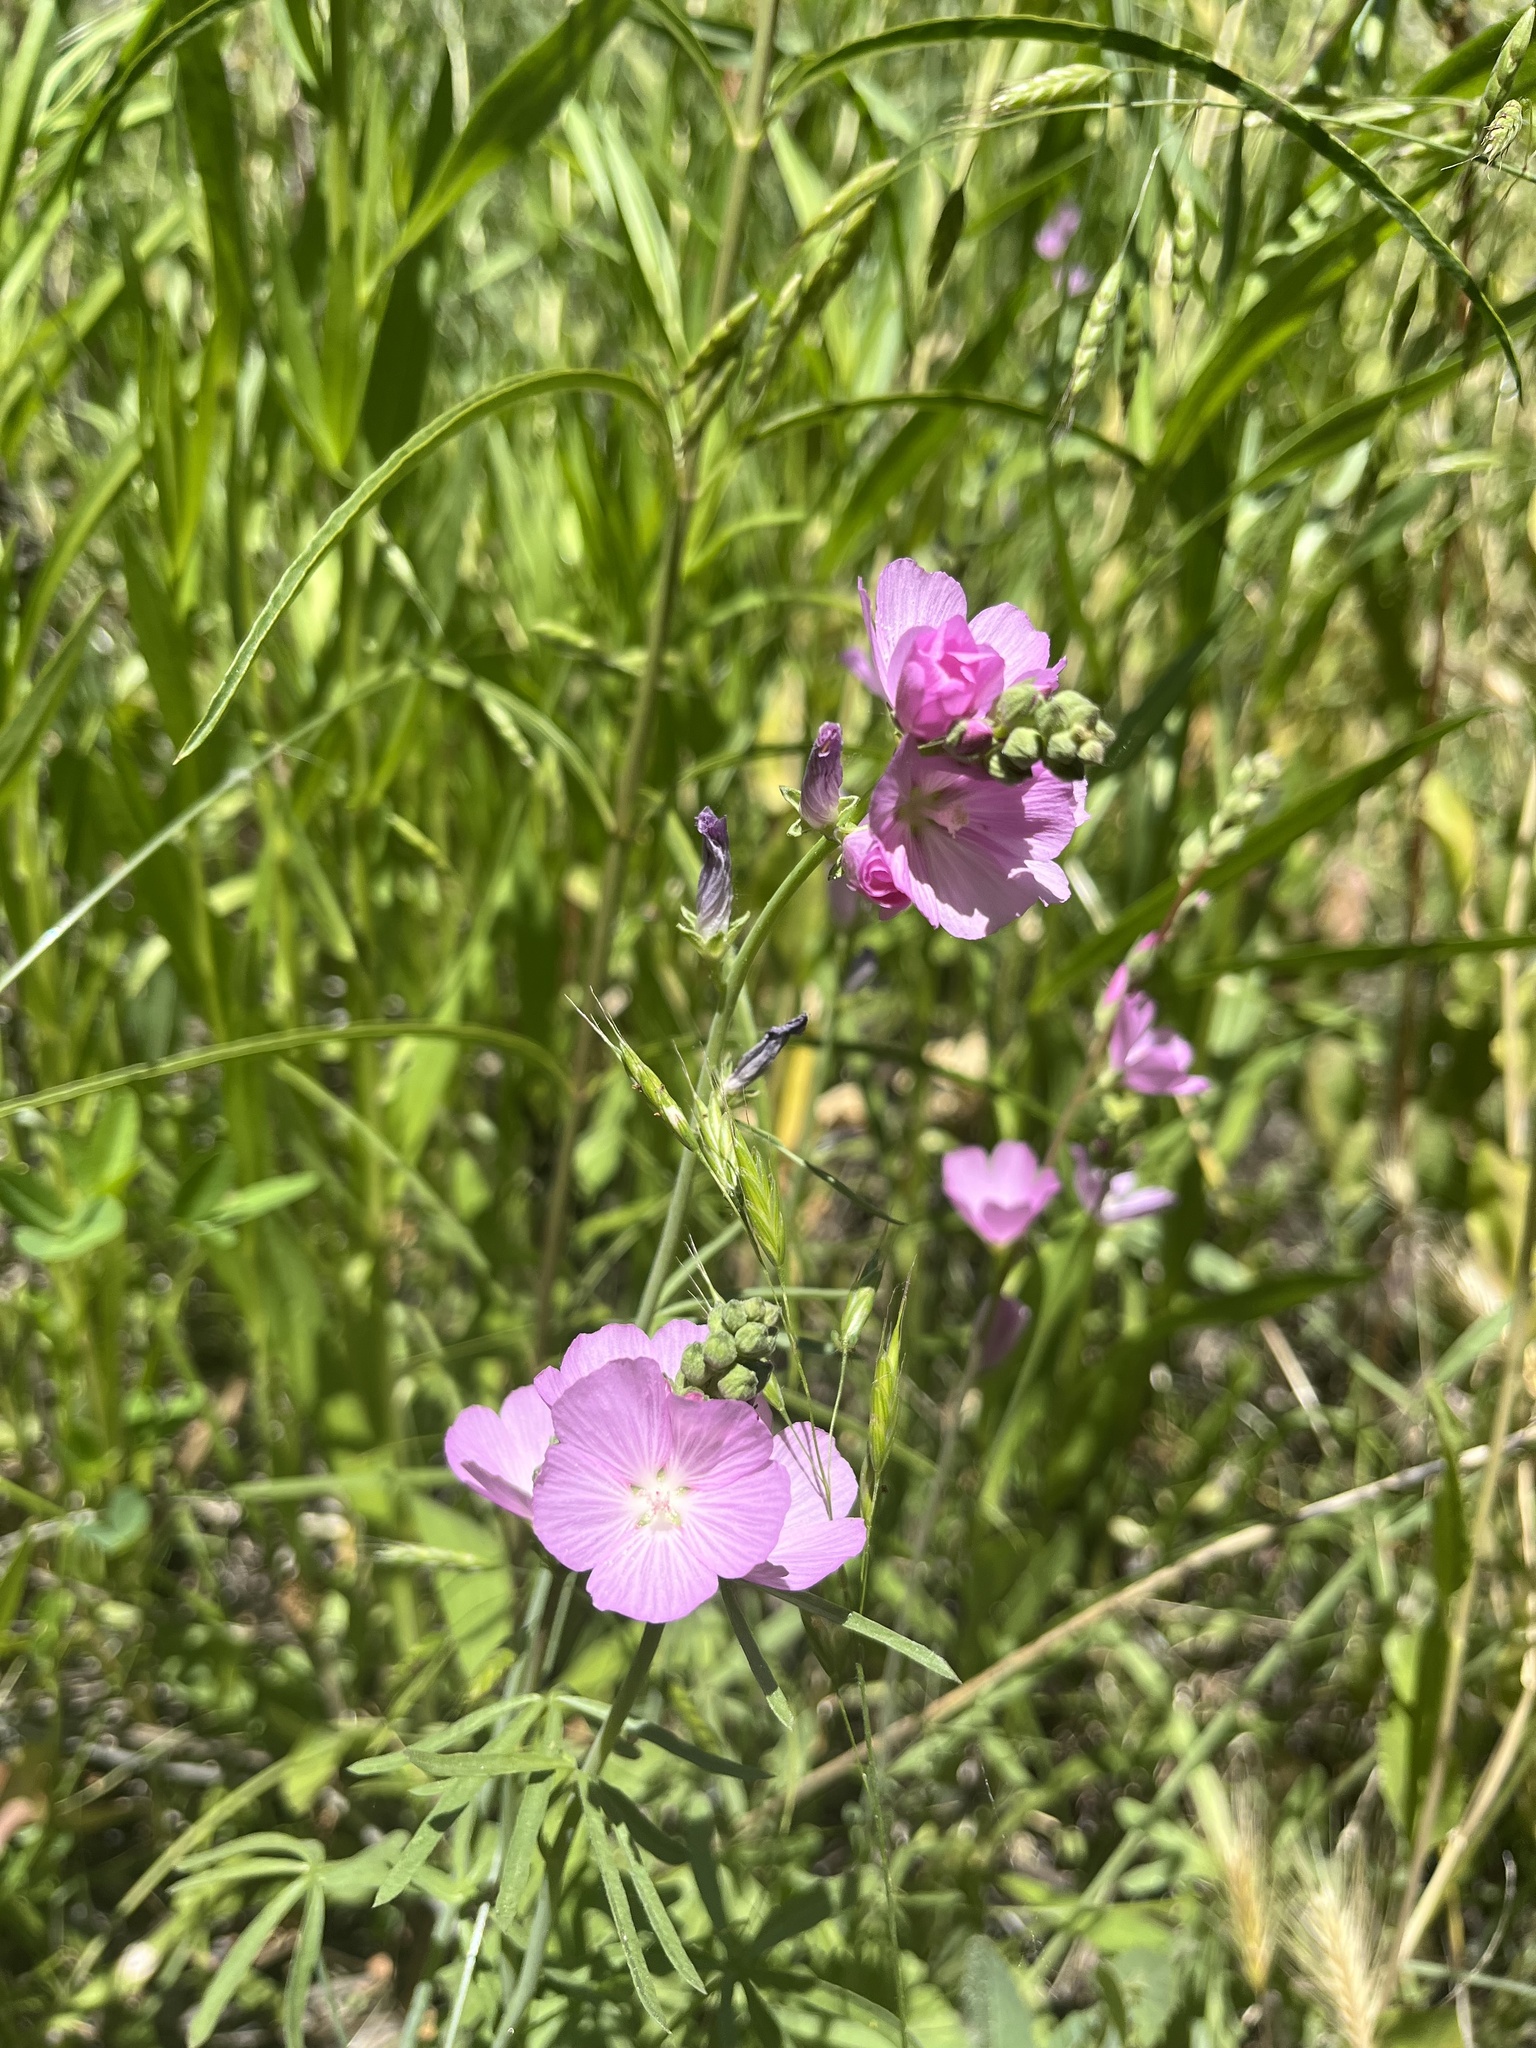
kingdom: Plantae
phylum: Tracheophyta
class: Magnoliopsida
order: Malvales
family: Malvaceae
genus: Sidalcea
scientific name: Sidalcea covillei
